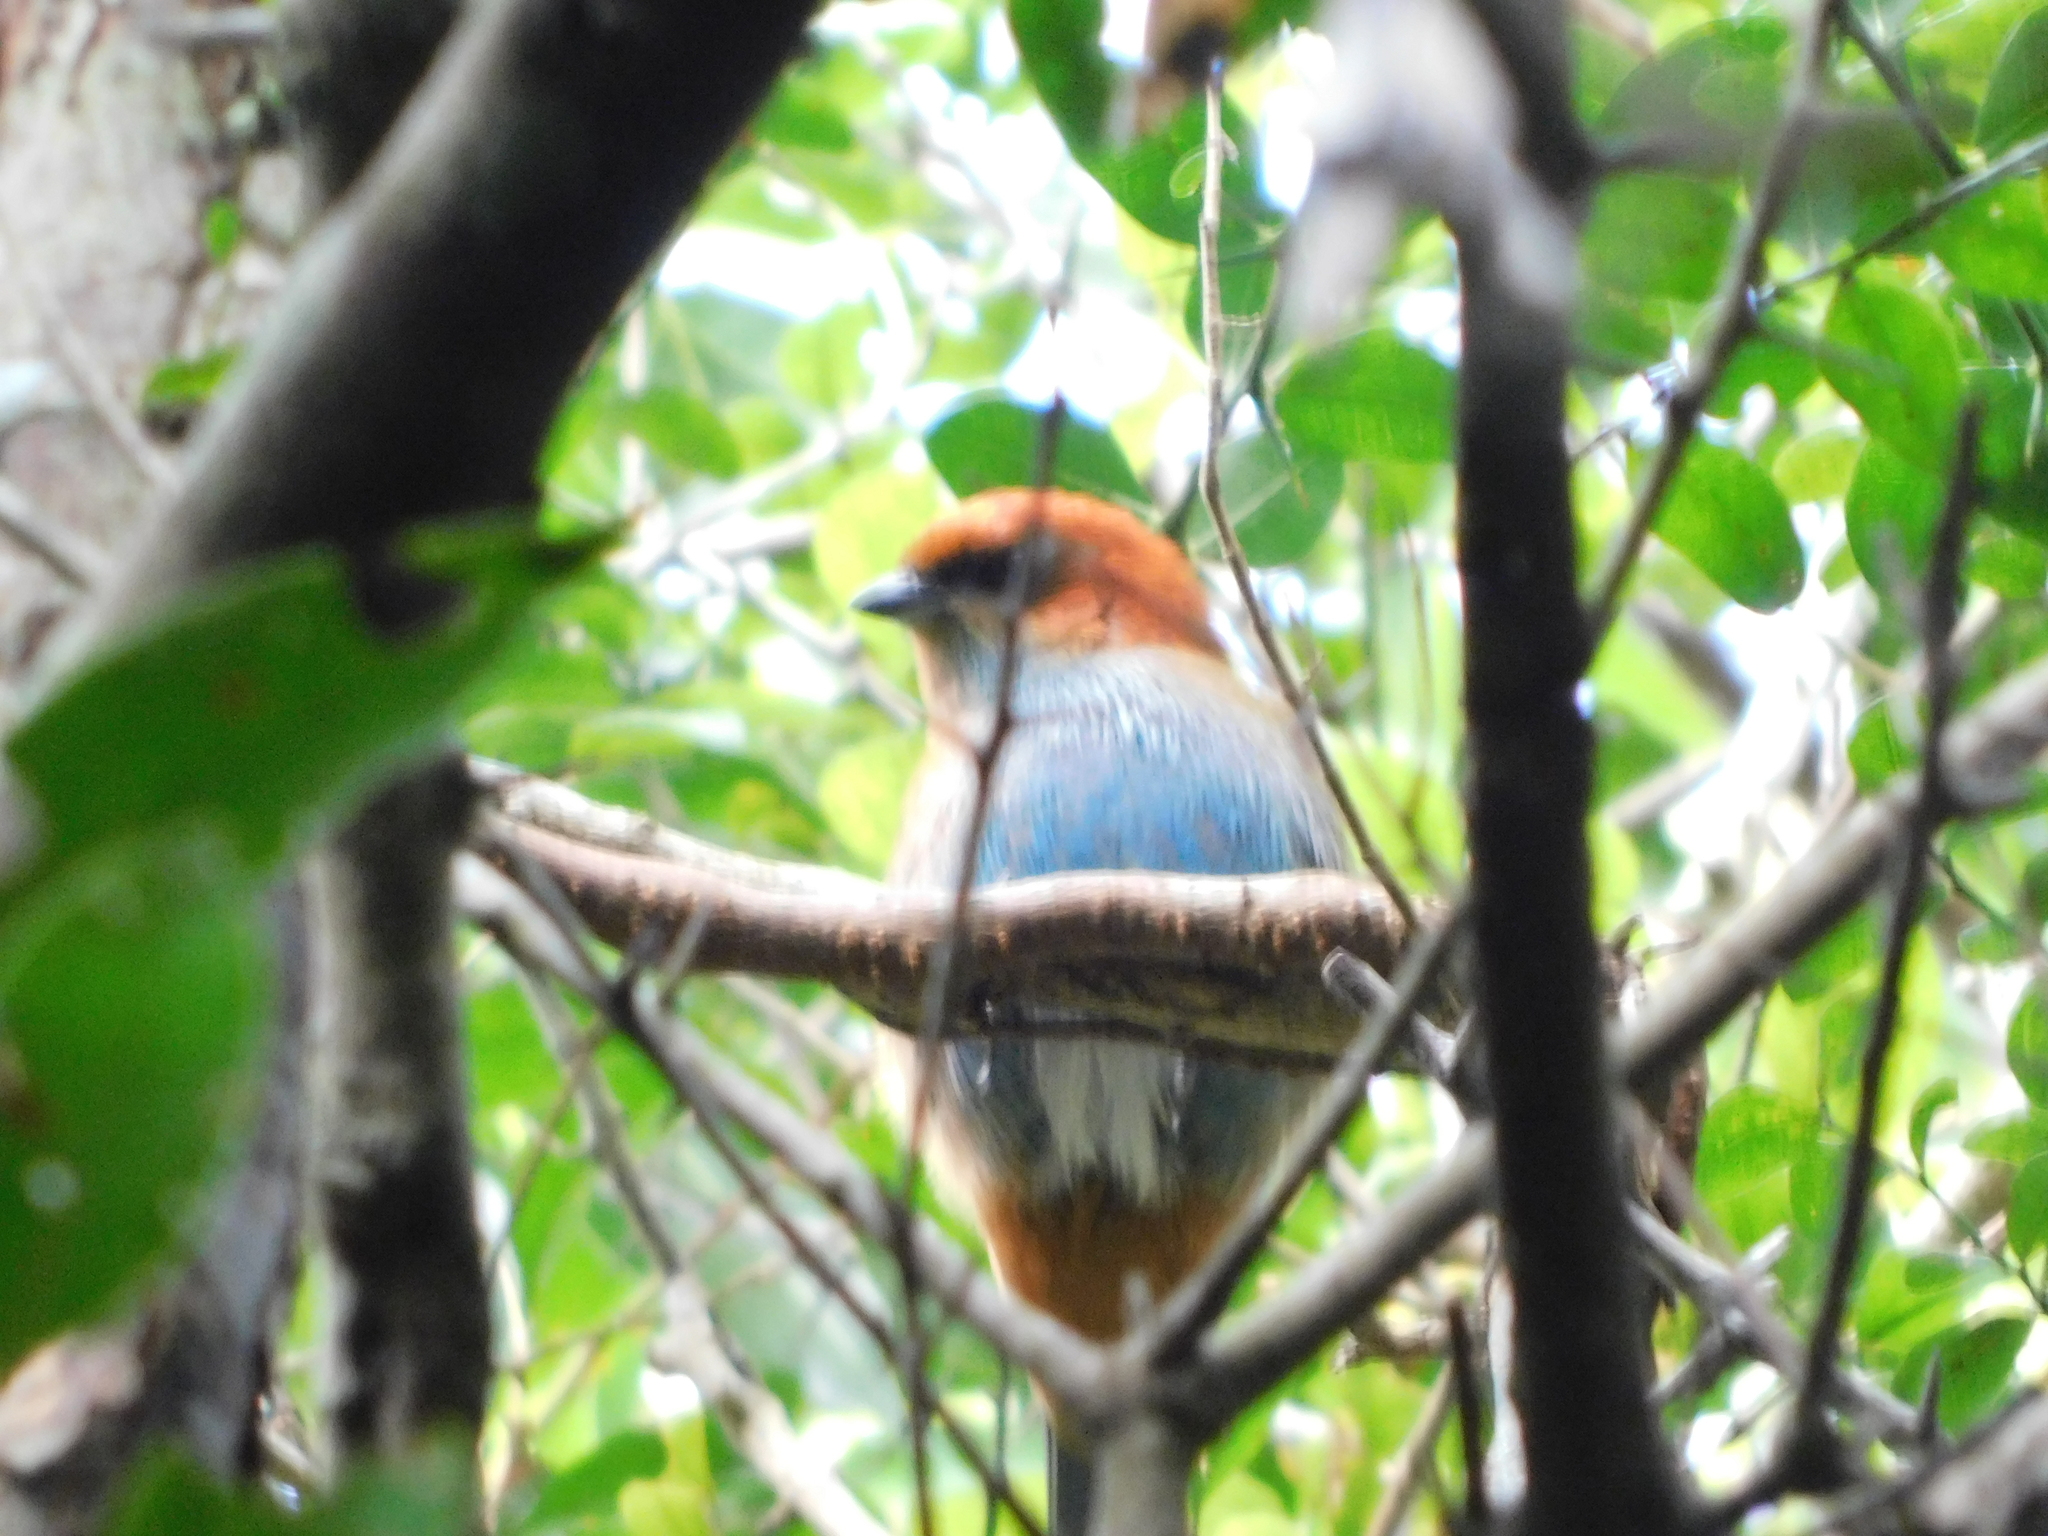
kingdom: Animalia
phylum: Chordata
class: Aves
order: Passeriformes
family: Thraupidae
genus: Stilpnia
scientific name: Stilpnia preciosa
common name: Chestnut-backed tanager
